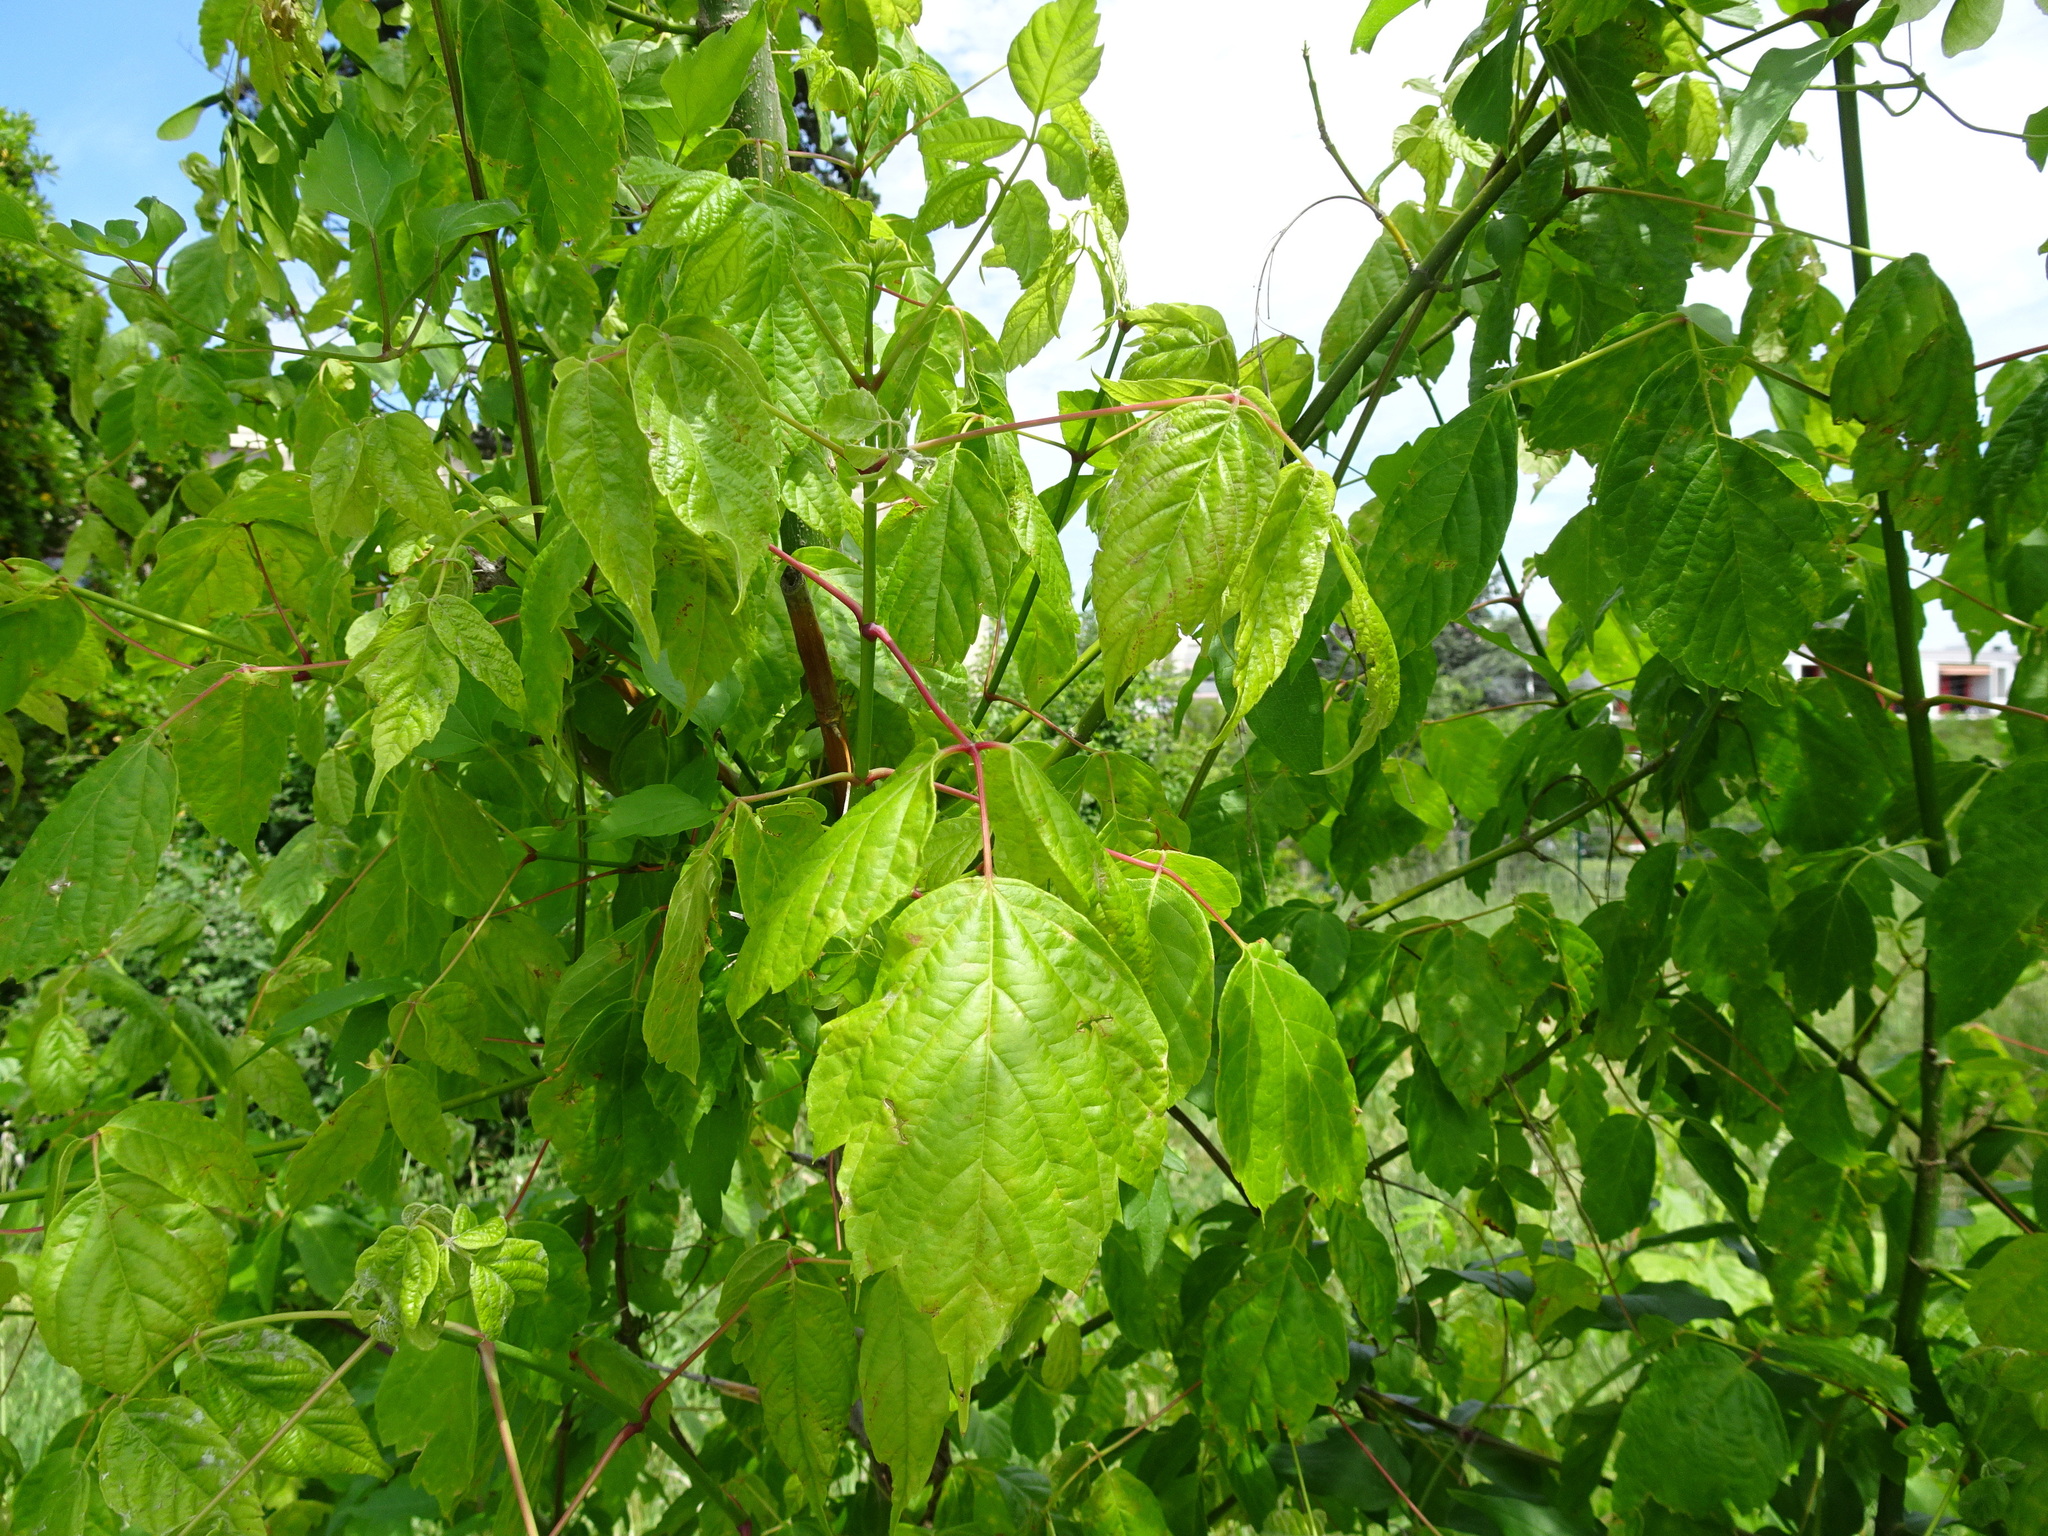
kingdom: Plantae
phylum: Tracheophyta
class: Magnoliopsida
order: Sapindales
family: Sapindaceae
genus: Acer
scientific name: Acer negundo
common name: Ashleaf maple
